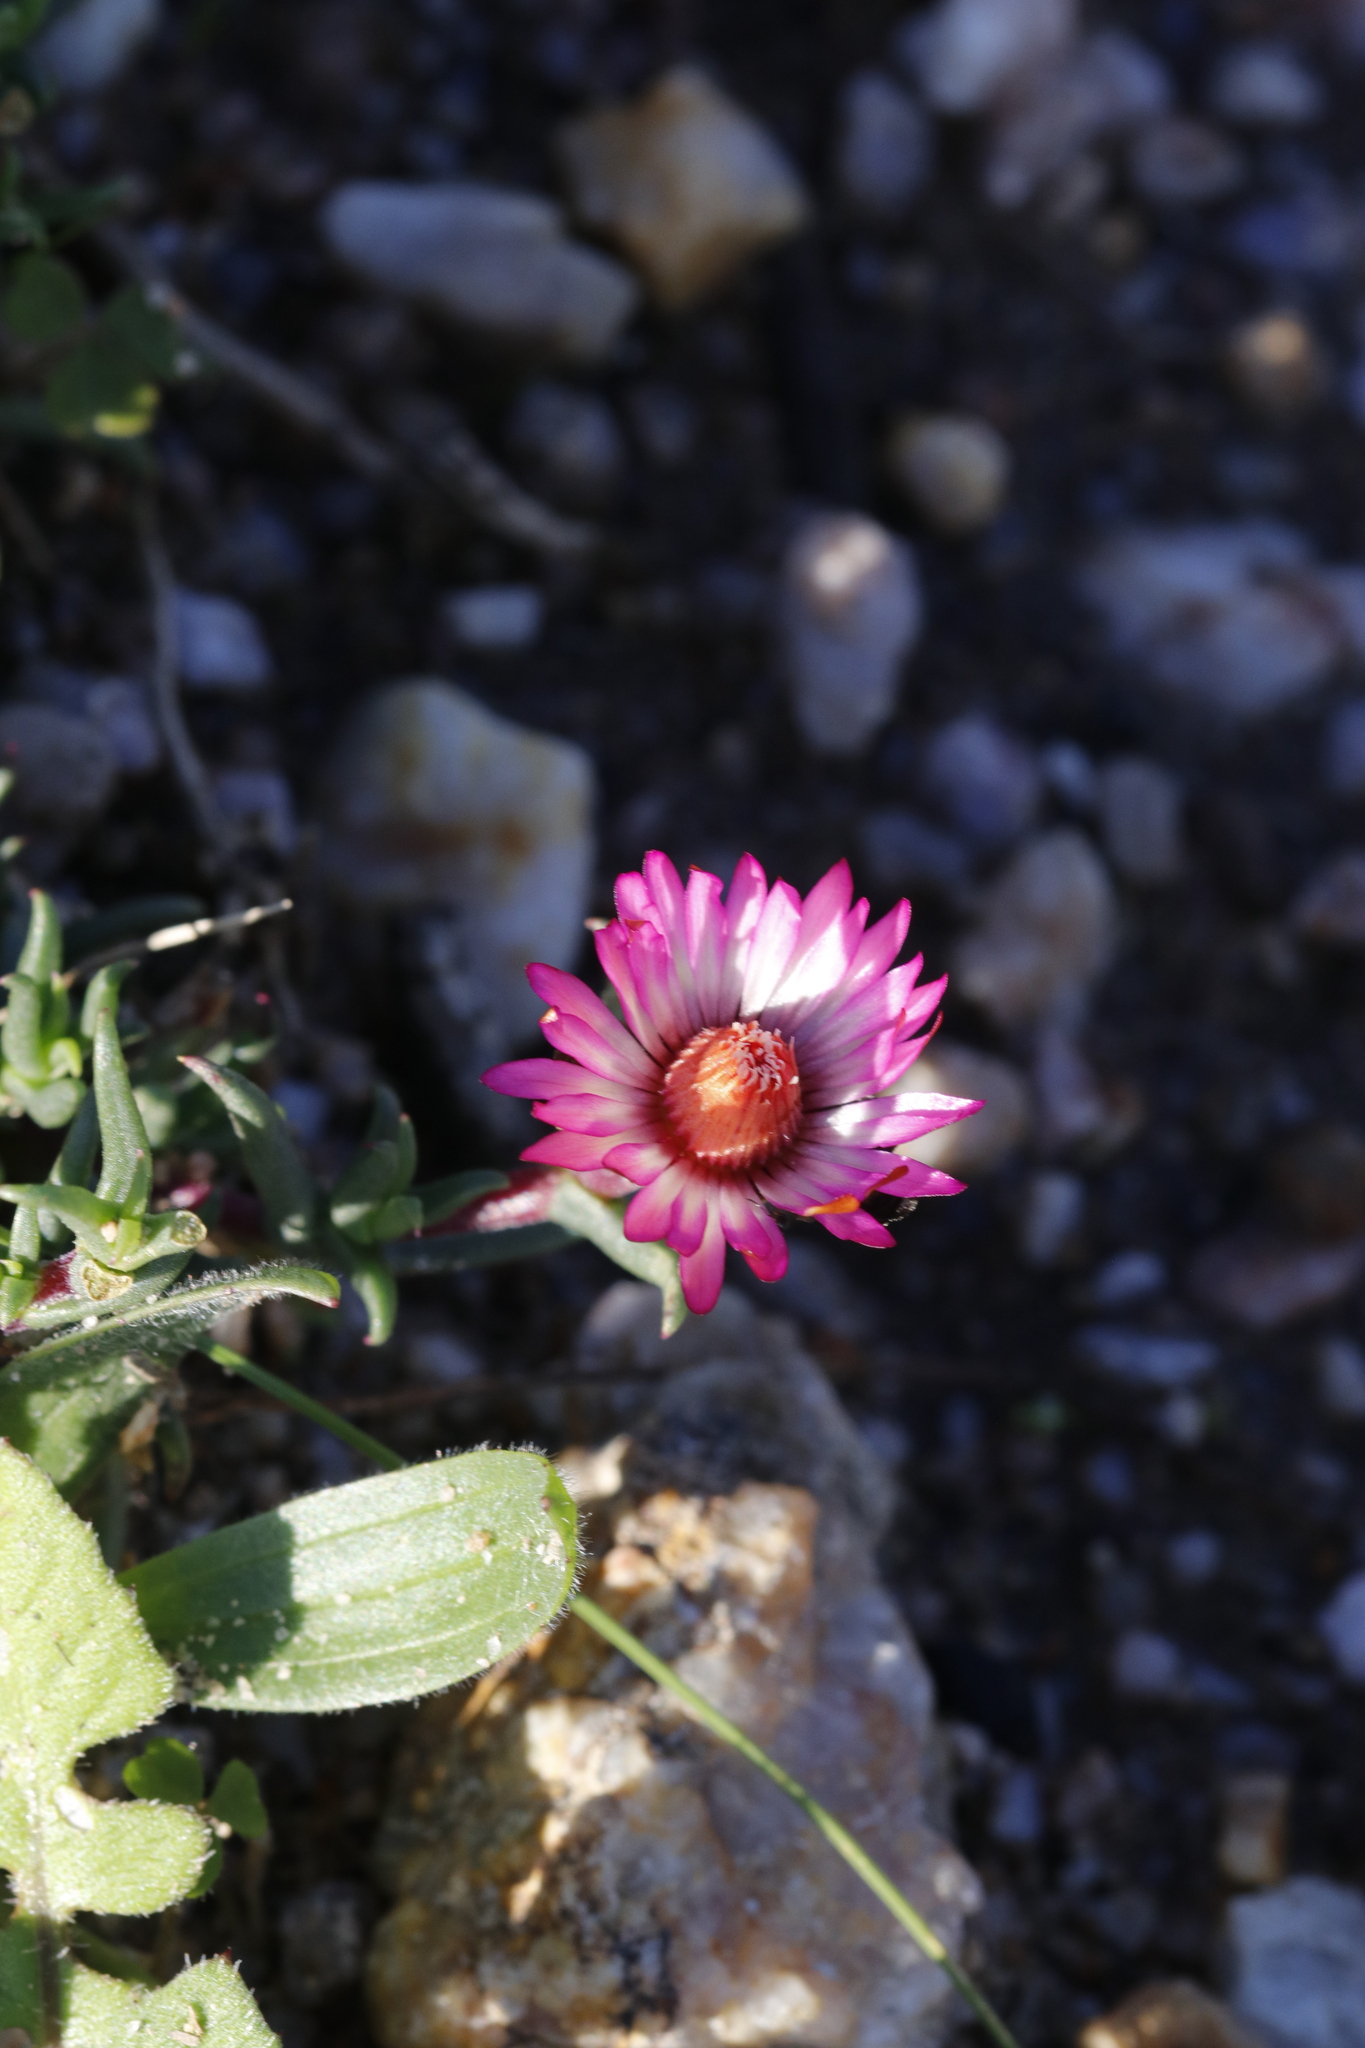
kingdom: Plantae
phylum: Tracheophyta
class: Magnoliopsida
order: Caryophyllales
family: Aizoaceae
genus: Lampranthus
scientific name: Lampranthus spiniformis
